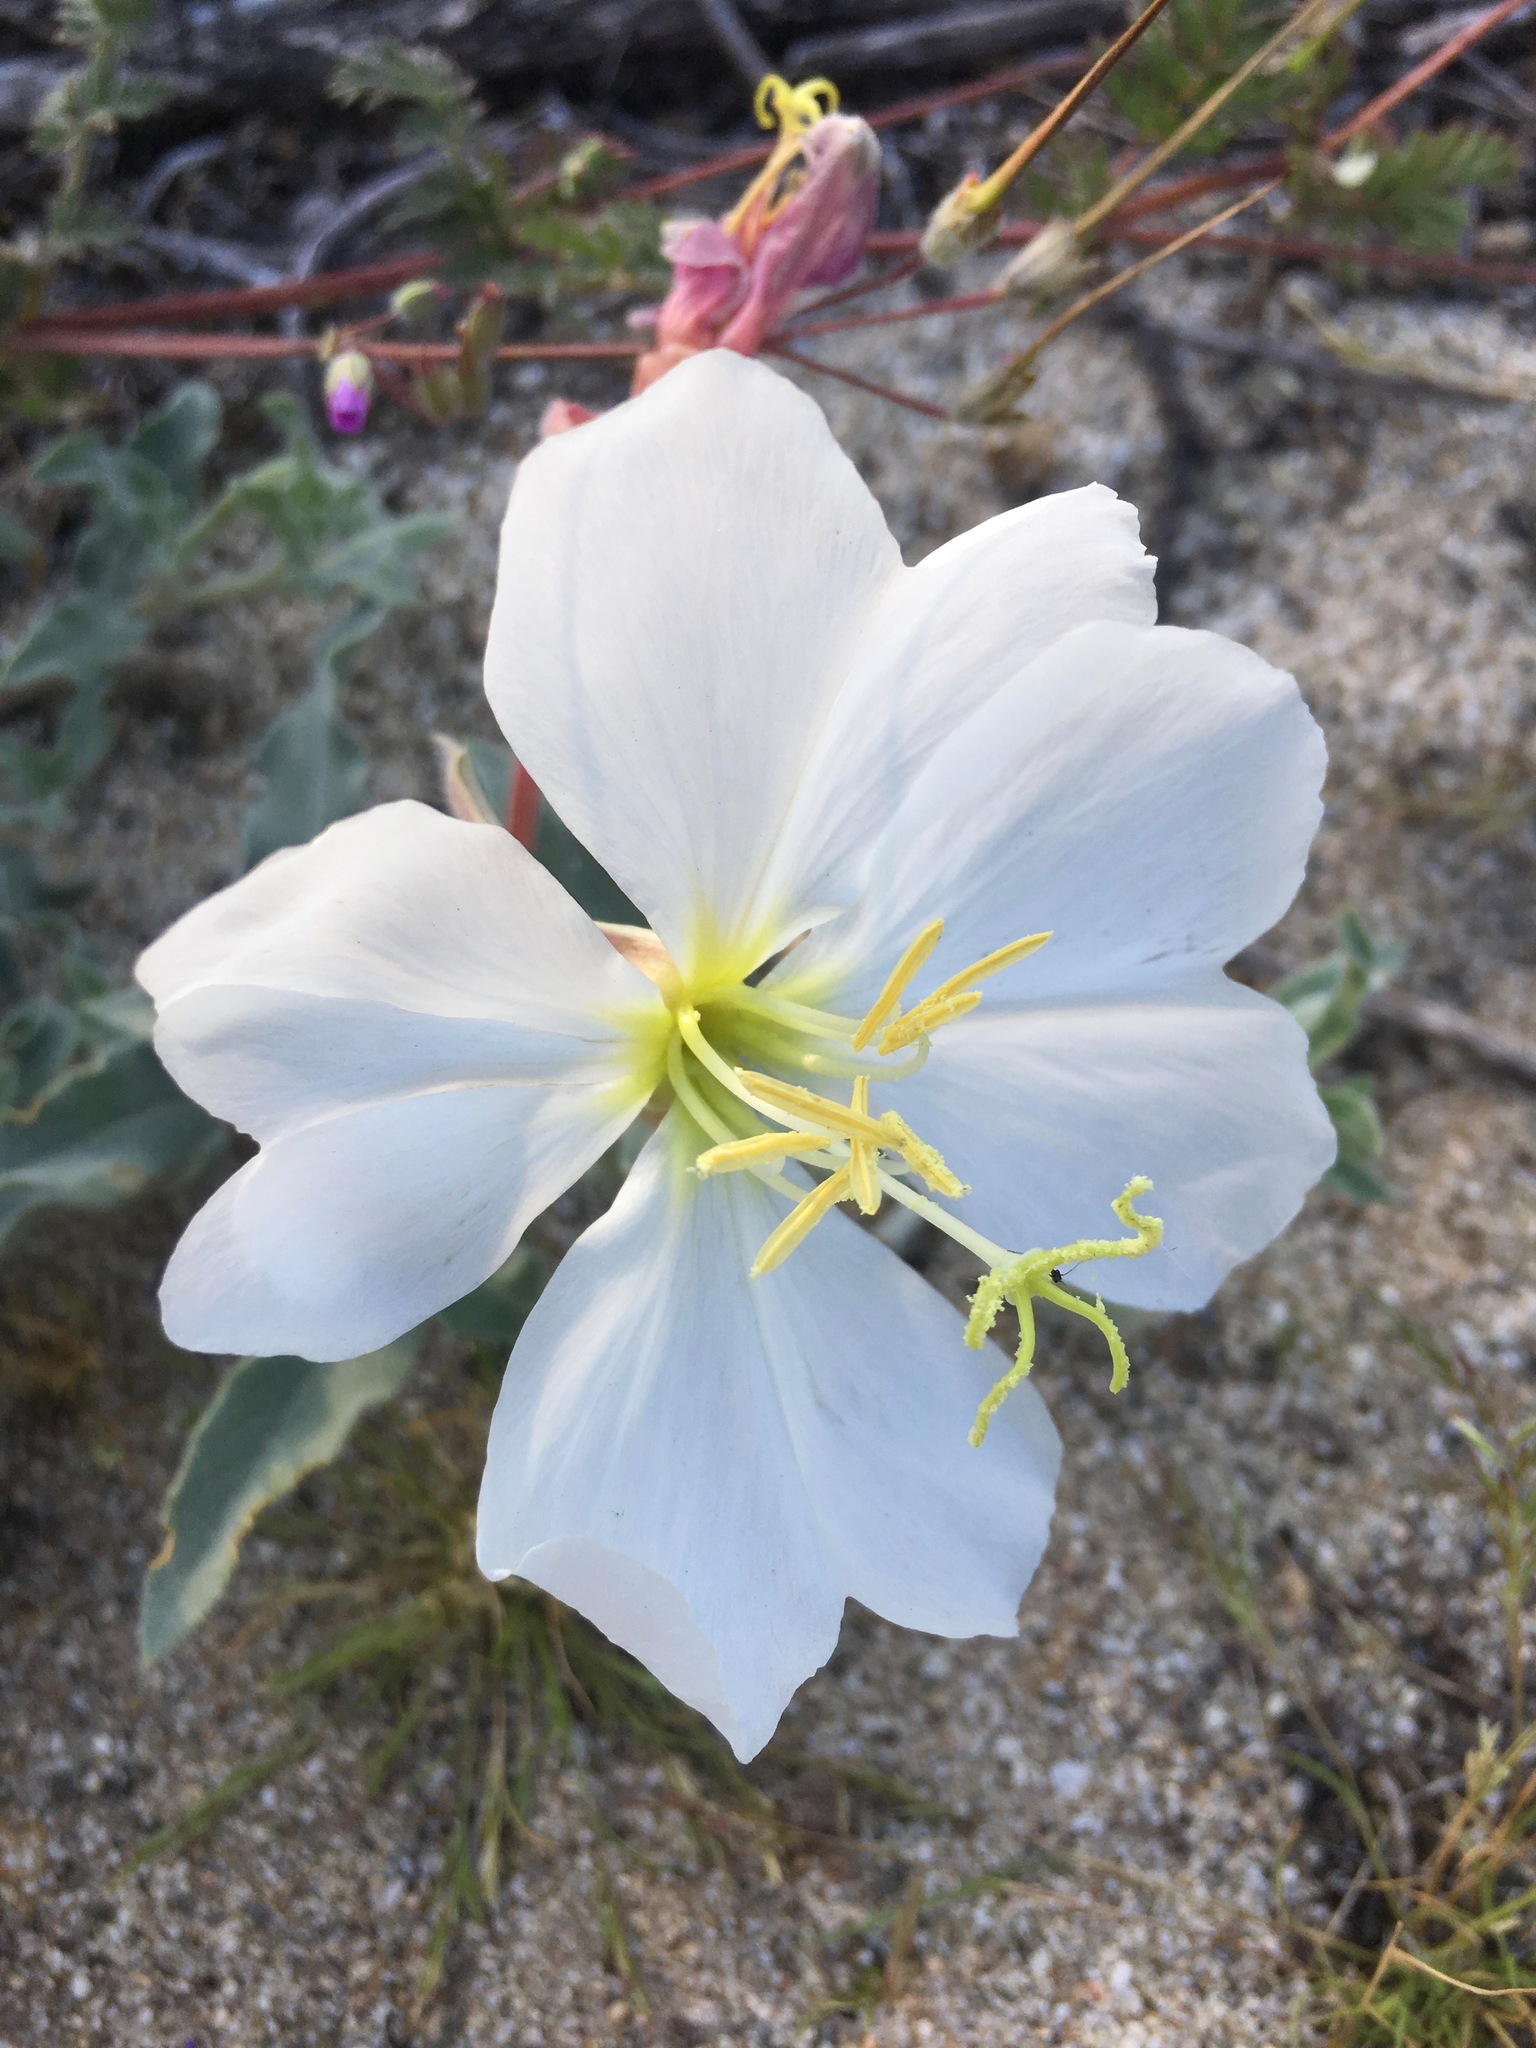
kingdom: Plantae
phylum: Tracheophyta
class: Magnoliopsida
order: Myrtales
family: Onagraceae
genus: Oenothera
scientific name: Oenothera californica
